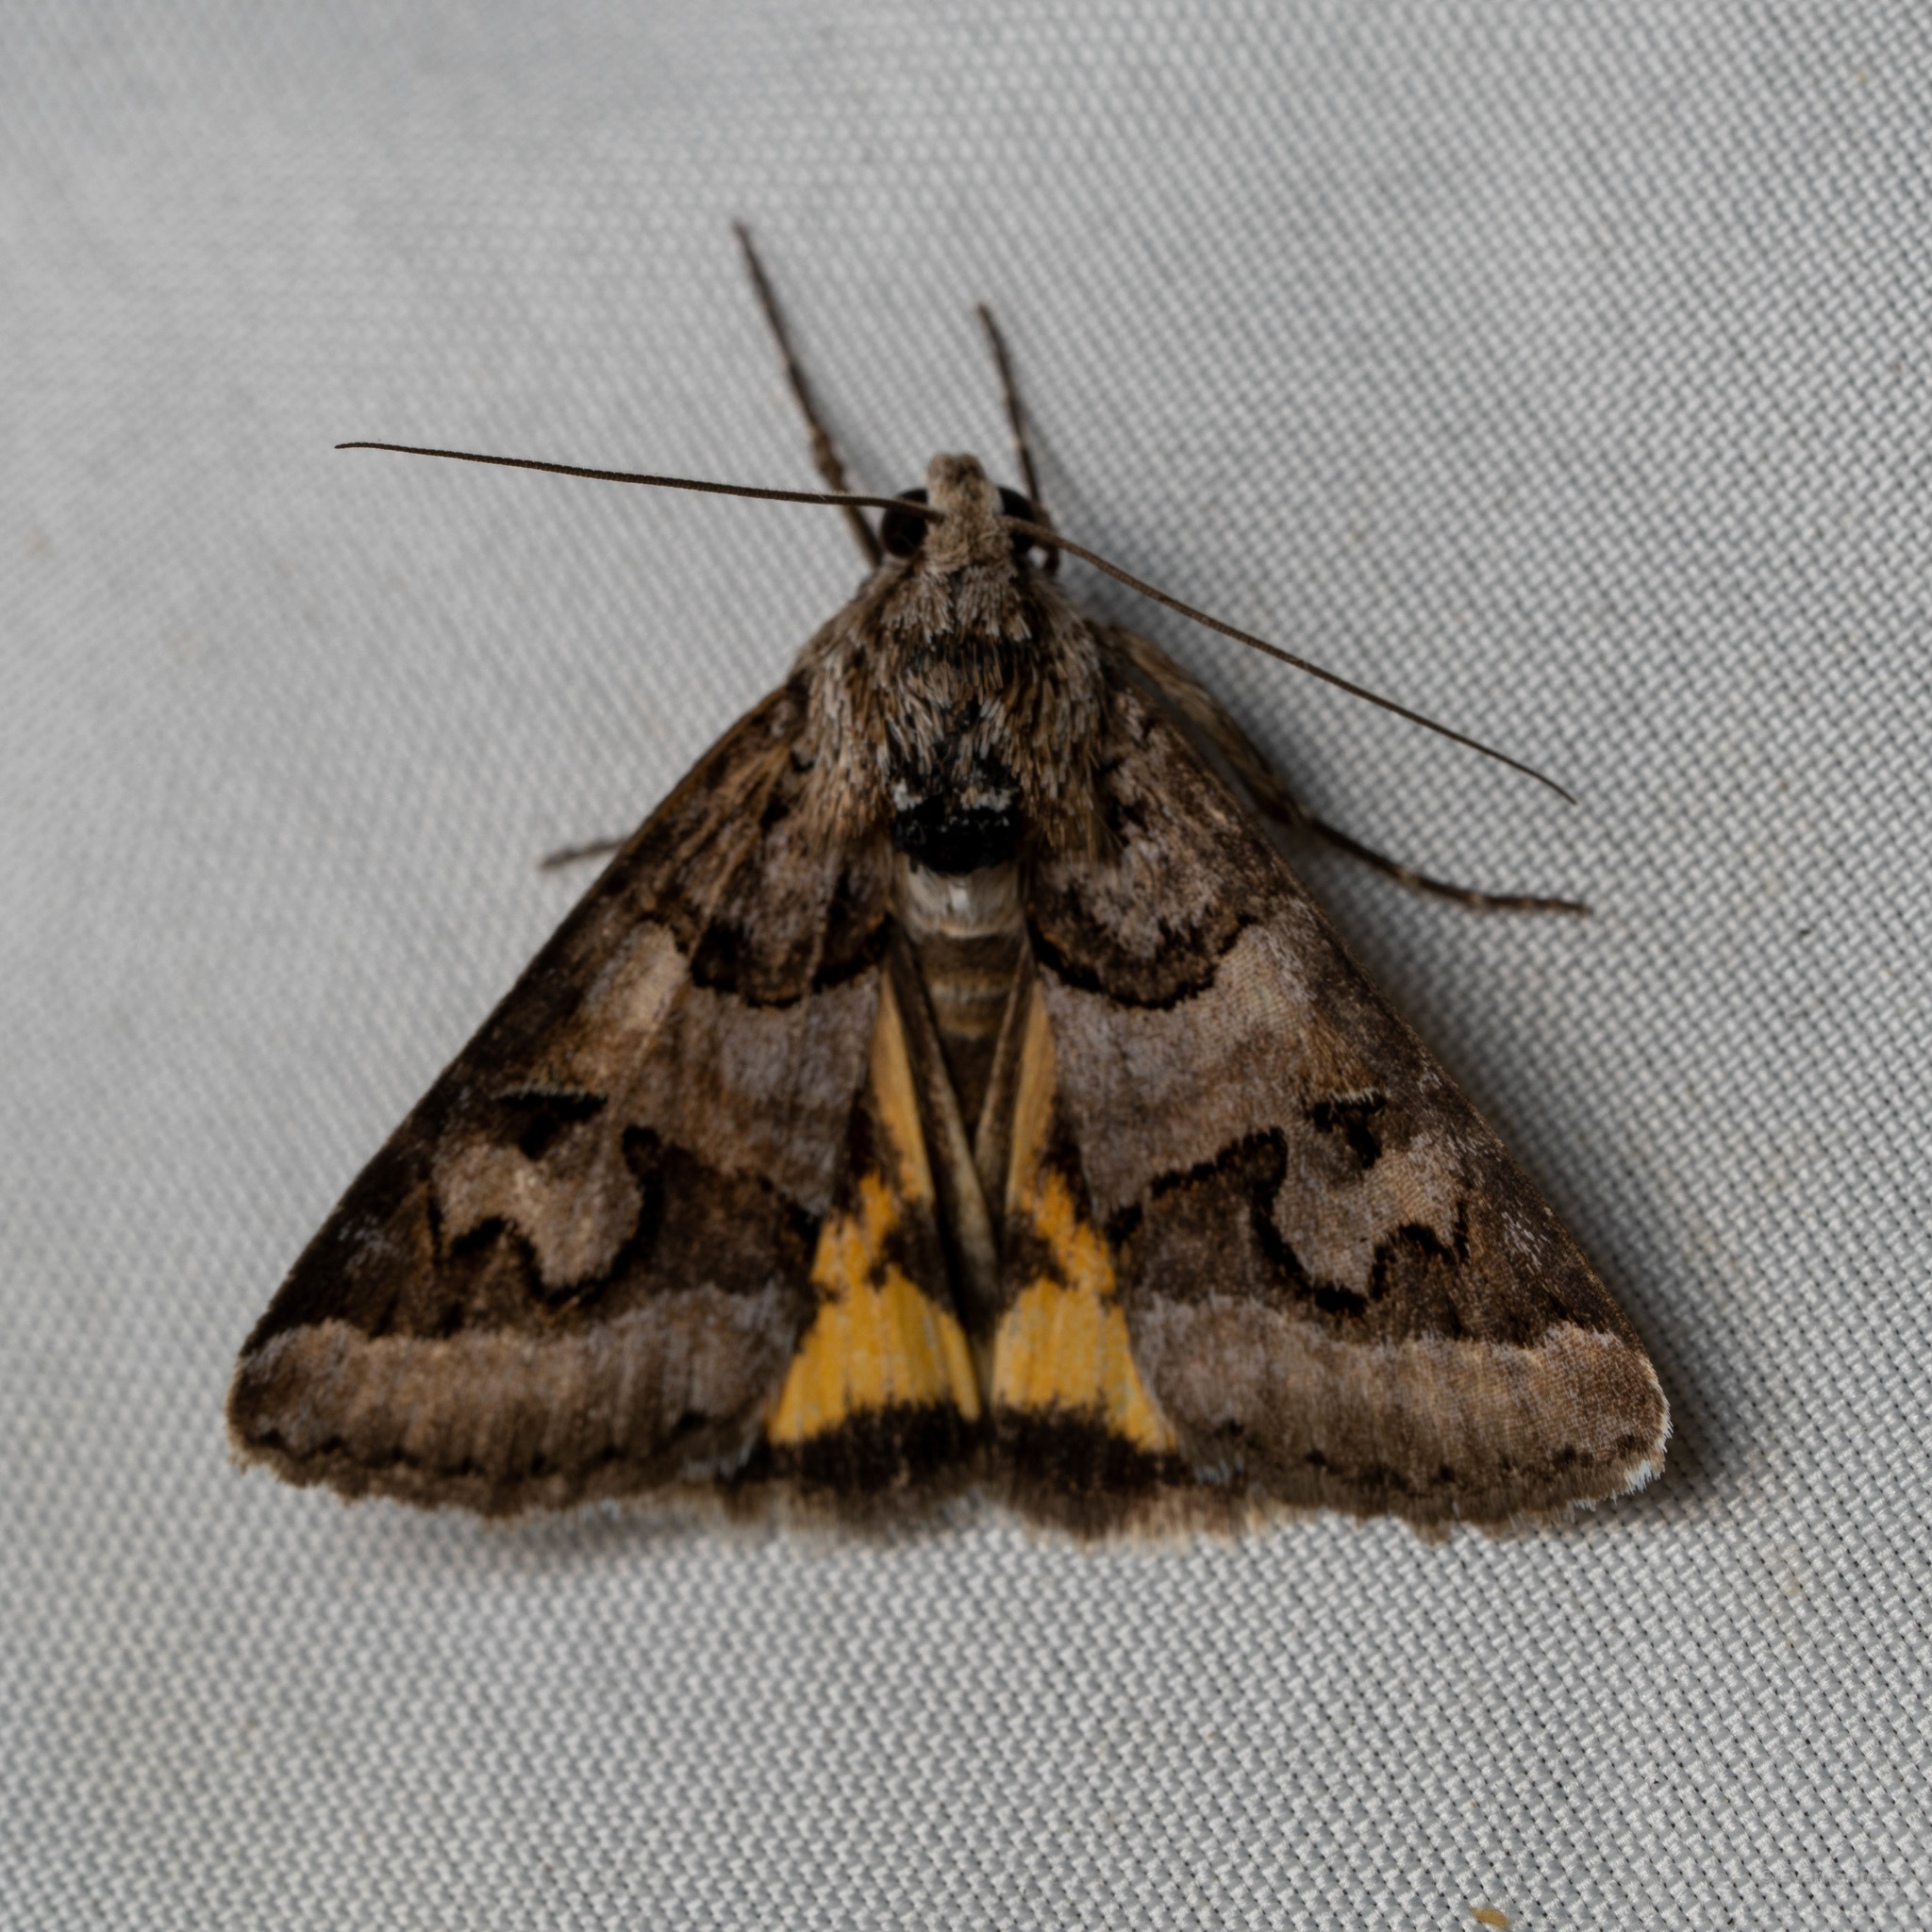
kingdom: Animalia
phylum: Arthropoda
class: Insecta
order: Lepidoptera
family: Erebidae
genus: Drasteria
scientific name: Drasteria graphica
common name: Coastal graphic
